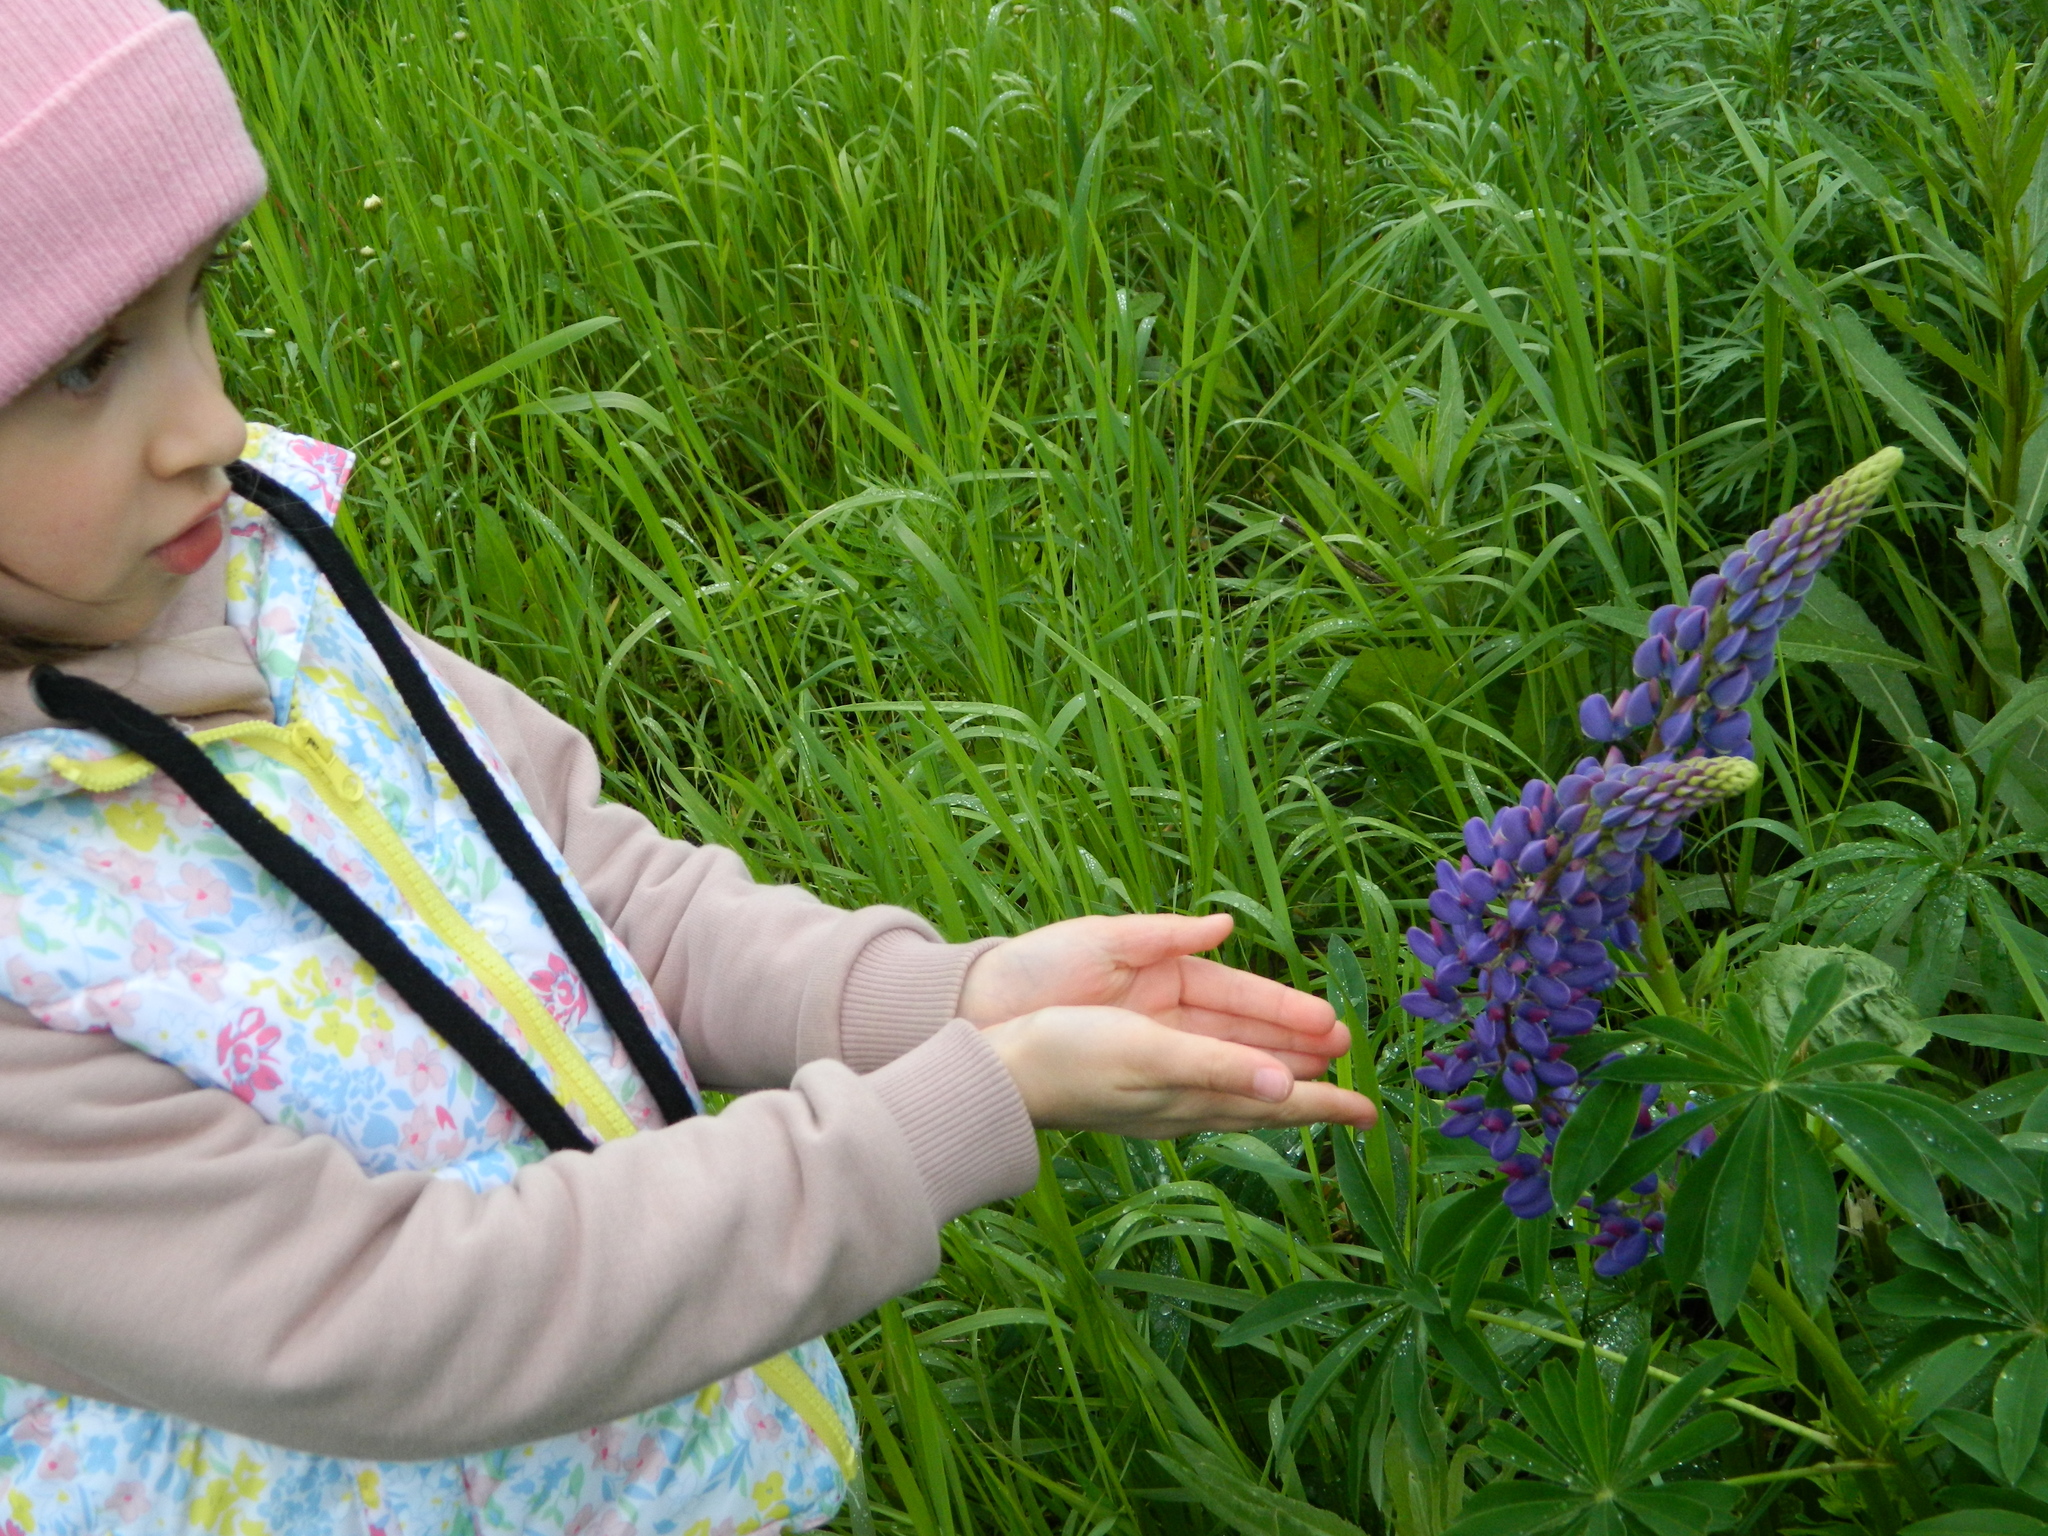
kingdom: Plantae
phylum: Tracheophyta
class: Magnoliopsida
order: Fabales
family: Fabaceae
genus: Lupinus
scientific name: Lupinus polyphyllus
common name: Garden lupin
